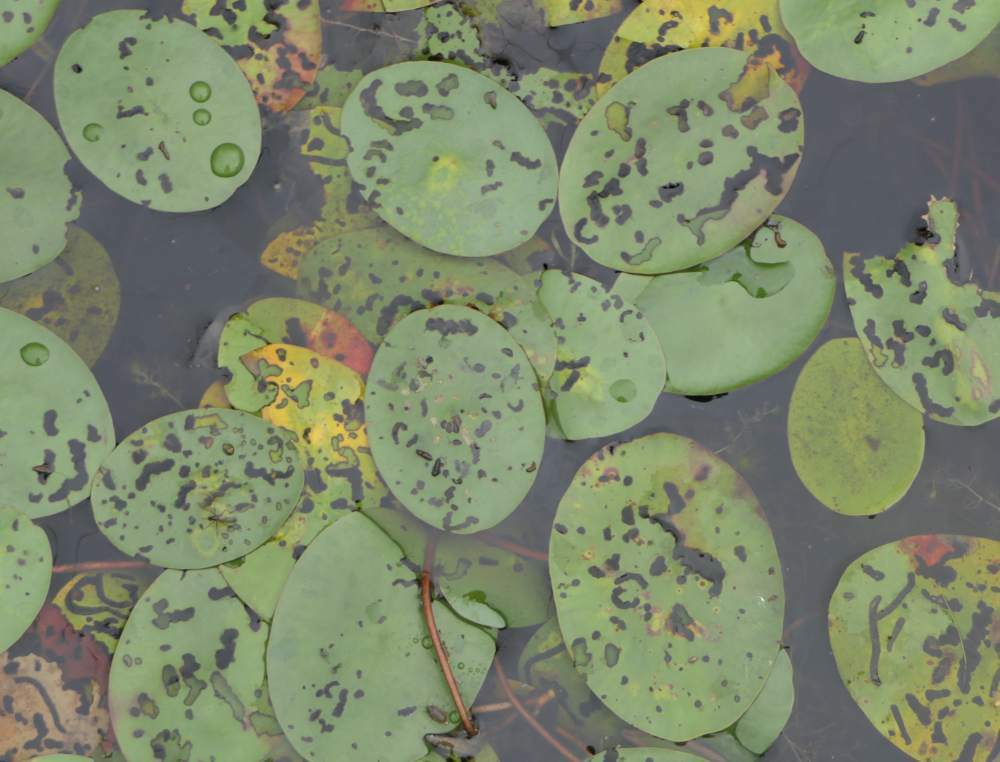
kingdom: Plantae
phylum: Tracheophyta
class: Magnoliopsida
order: Nymphaeales
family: Cabombaceae
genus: Brasenia
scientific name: Brasenia schreberi
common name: Water-shield
